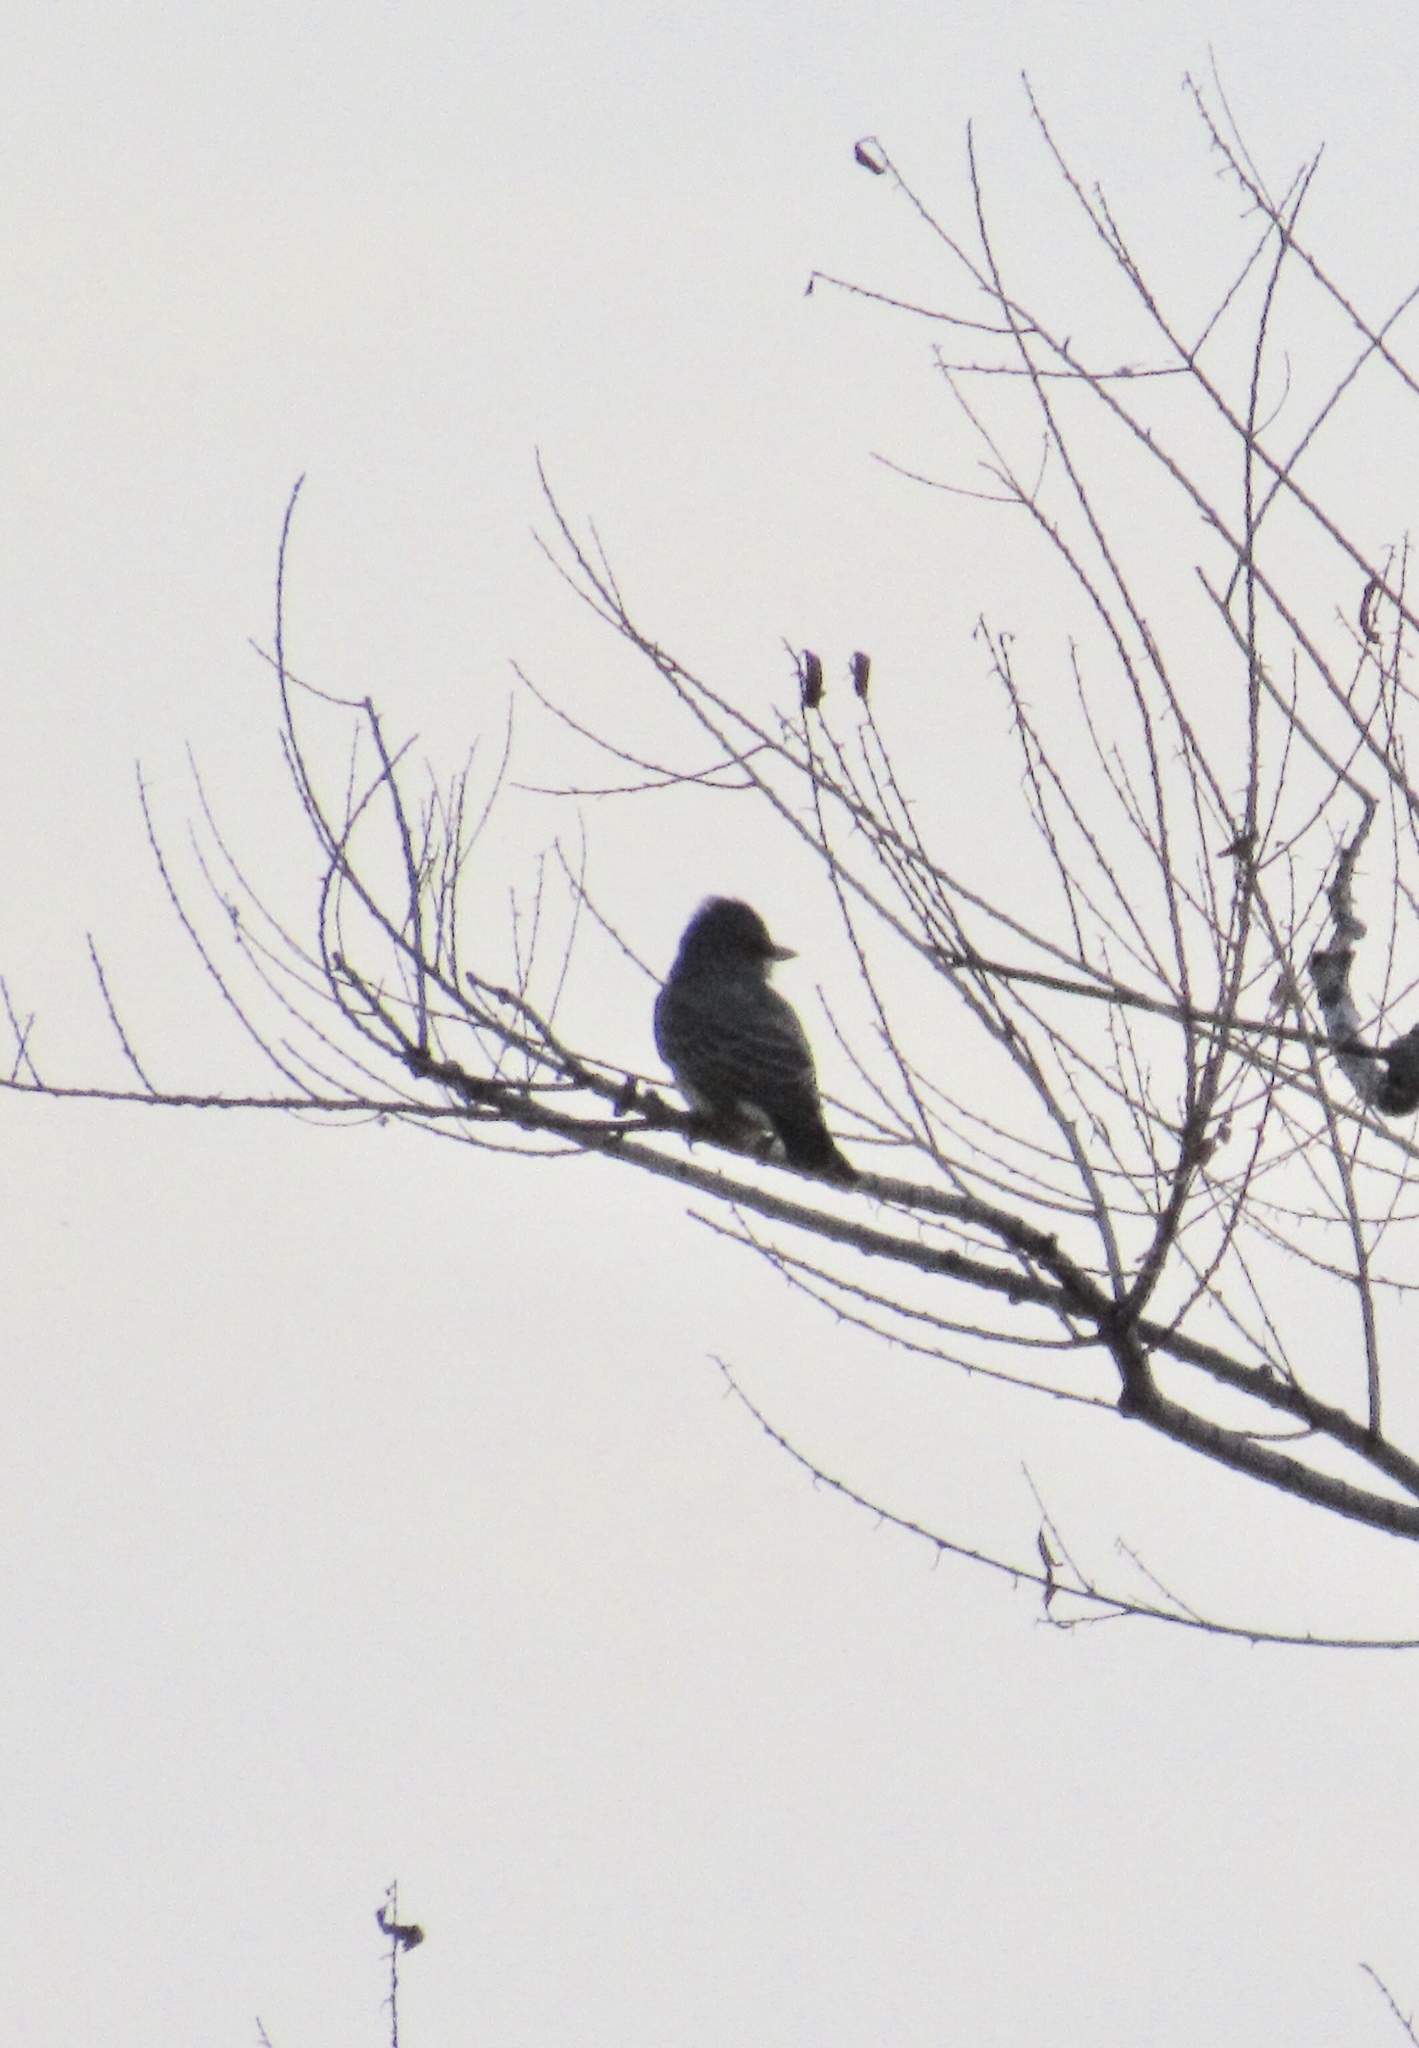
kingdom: Animalia
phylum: Chordata
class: Aves
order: Passeriformes
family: Tyrannidae
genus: Tyrannus
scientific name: Tyrannus vociferans
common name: Cassin's kingbird
